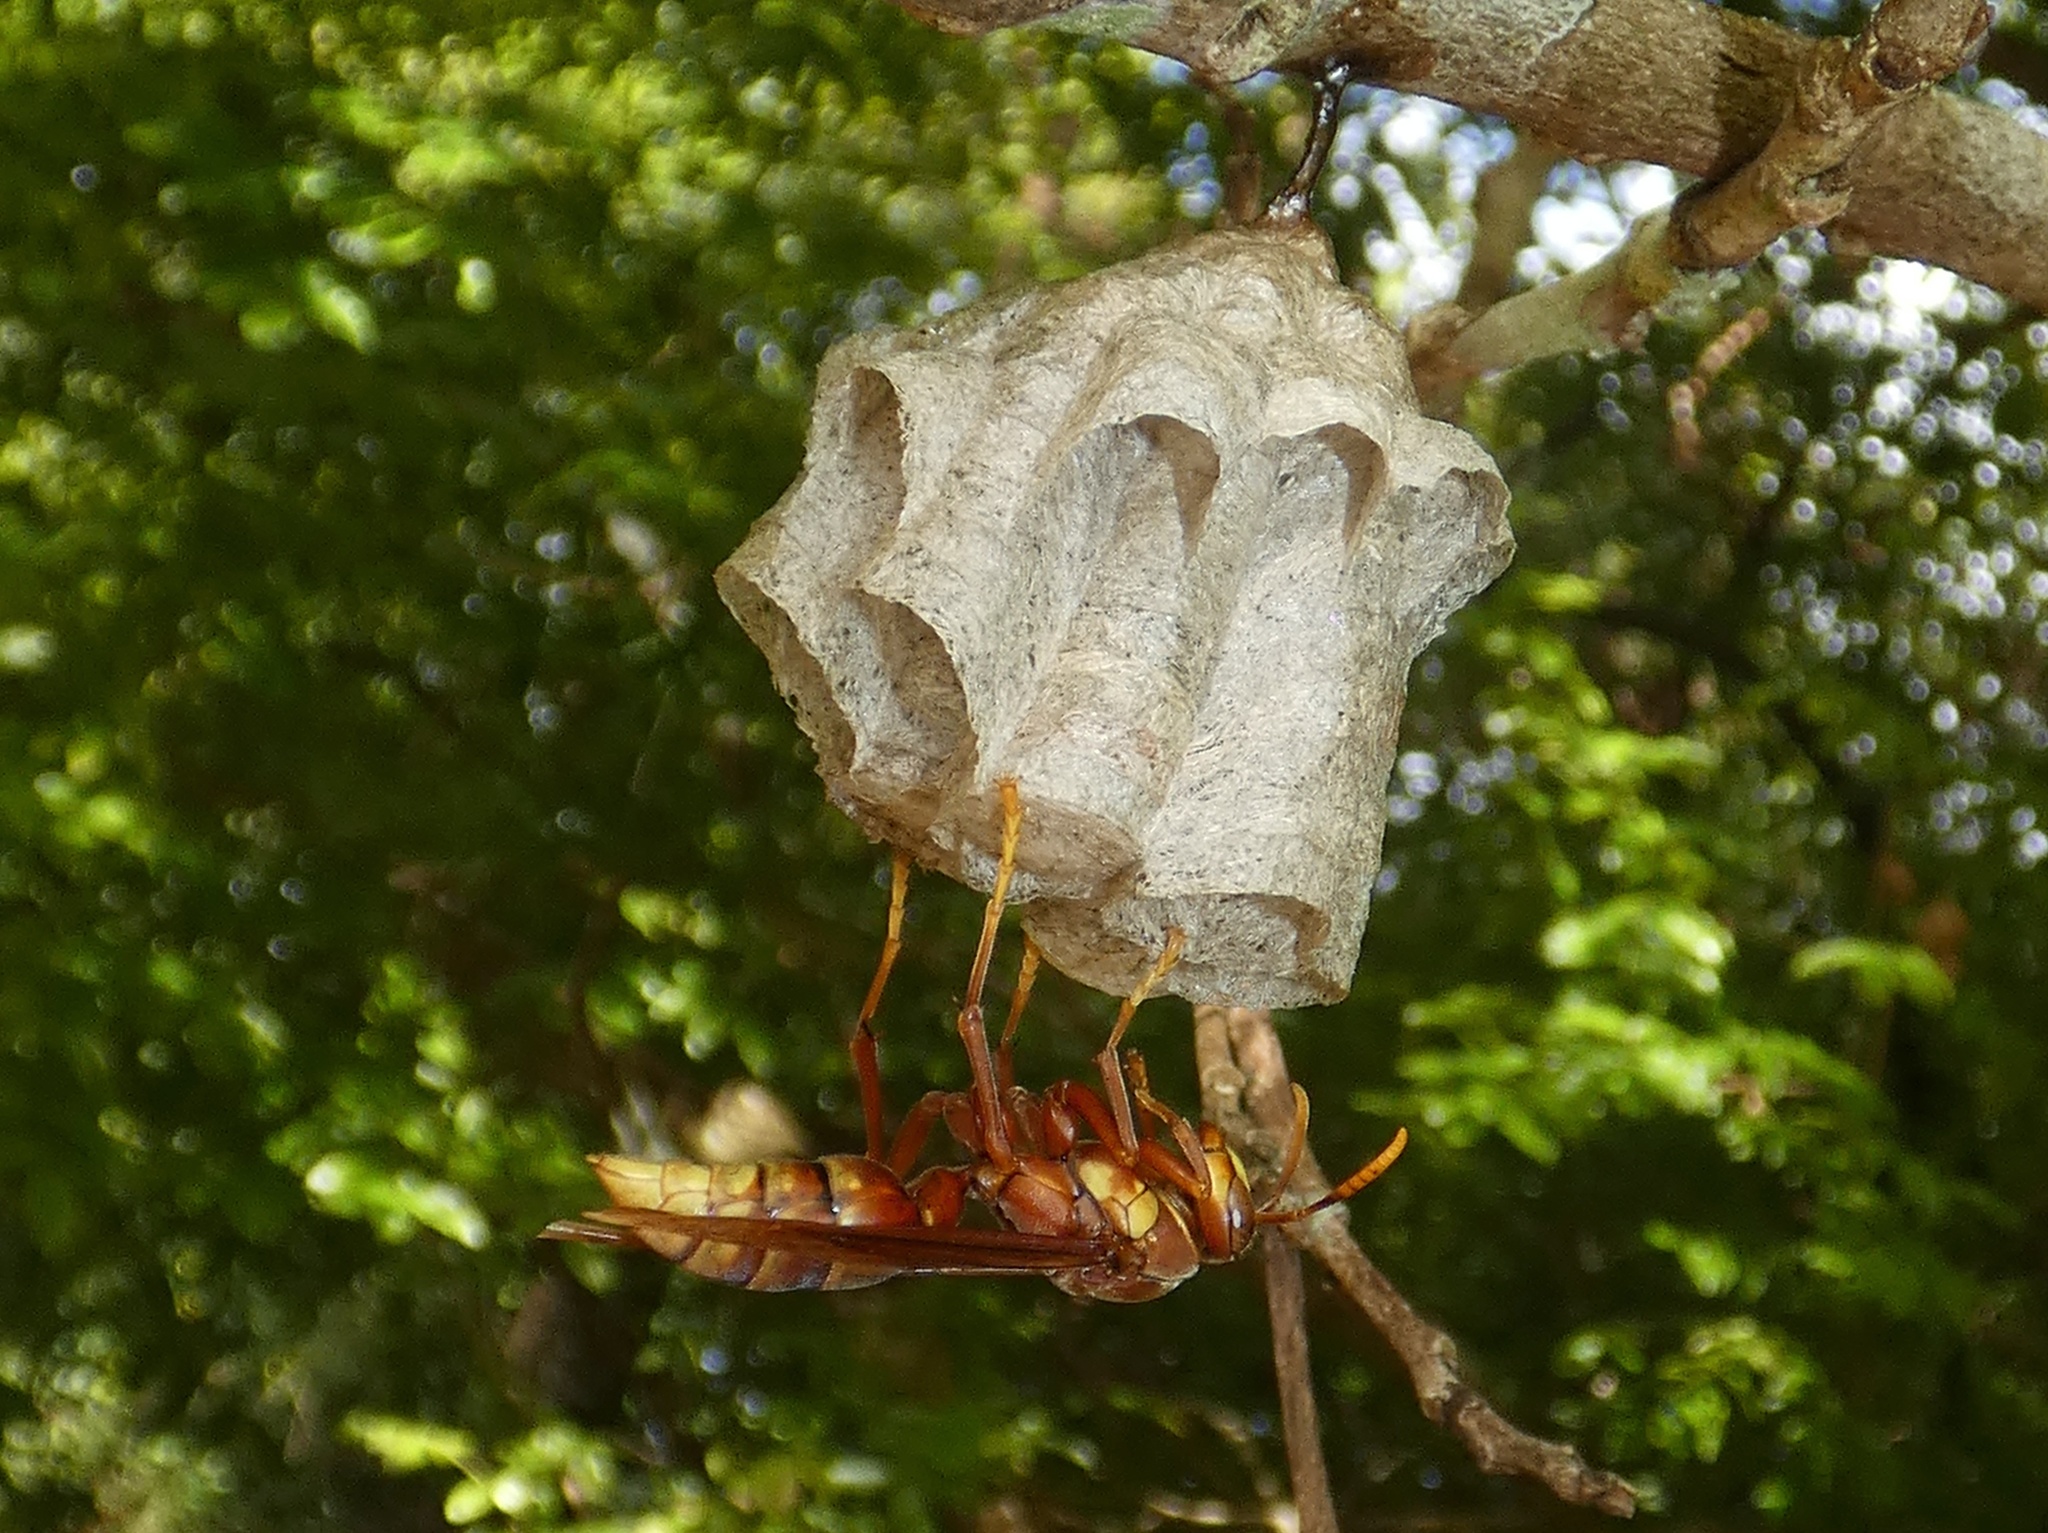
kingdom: Animalia
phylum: Arthropoda
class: Insecta
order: Hymenoptera
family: Eumenidae
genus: Polistes
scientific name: Polistes carnifex
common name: Paper wasp
